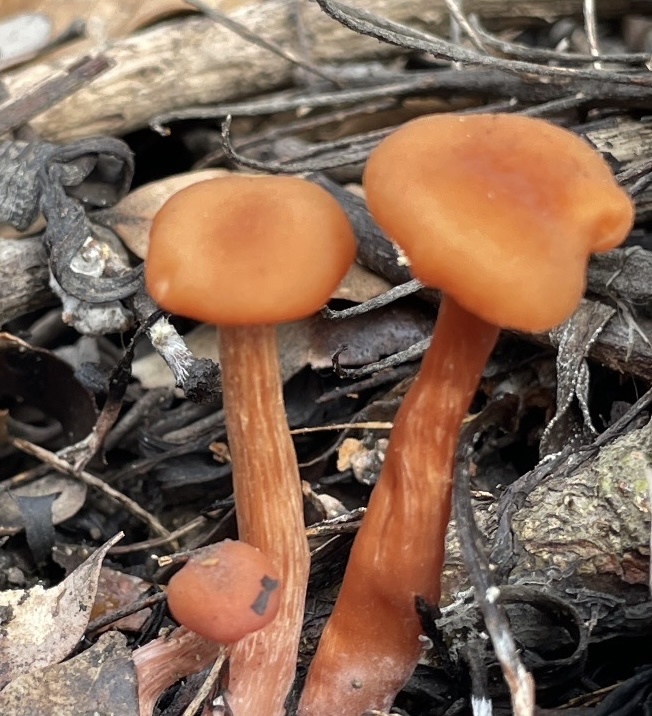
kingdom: Fungi
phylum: Basidiomycota
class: Agaricomycetes
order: Agaricales
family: Hydnangiaceae
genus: Laccaria
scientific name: Laccaria laccata
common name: Deceiver
